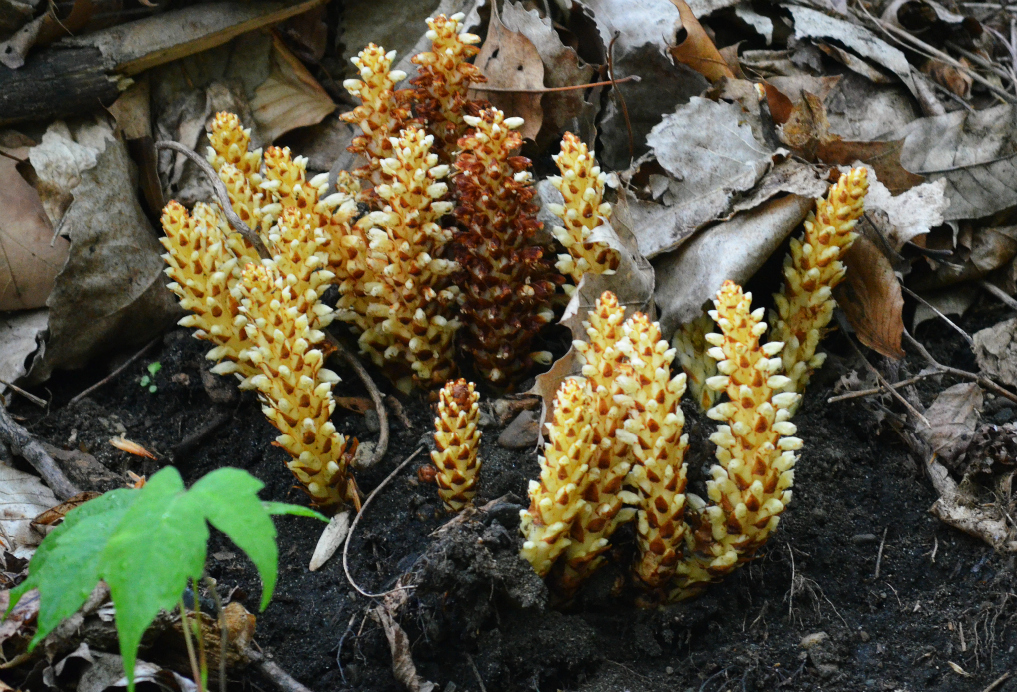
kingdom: Plantae
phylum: Tracheophyta
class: Magnoliopsida
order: Lamiales
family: Orobanchaceae
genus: Conopholis
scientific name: Conopholis americana
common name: American cancer-root
